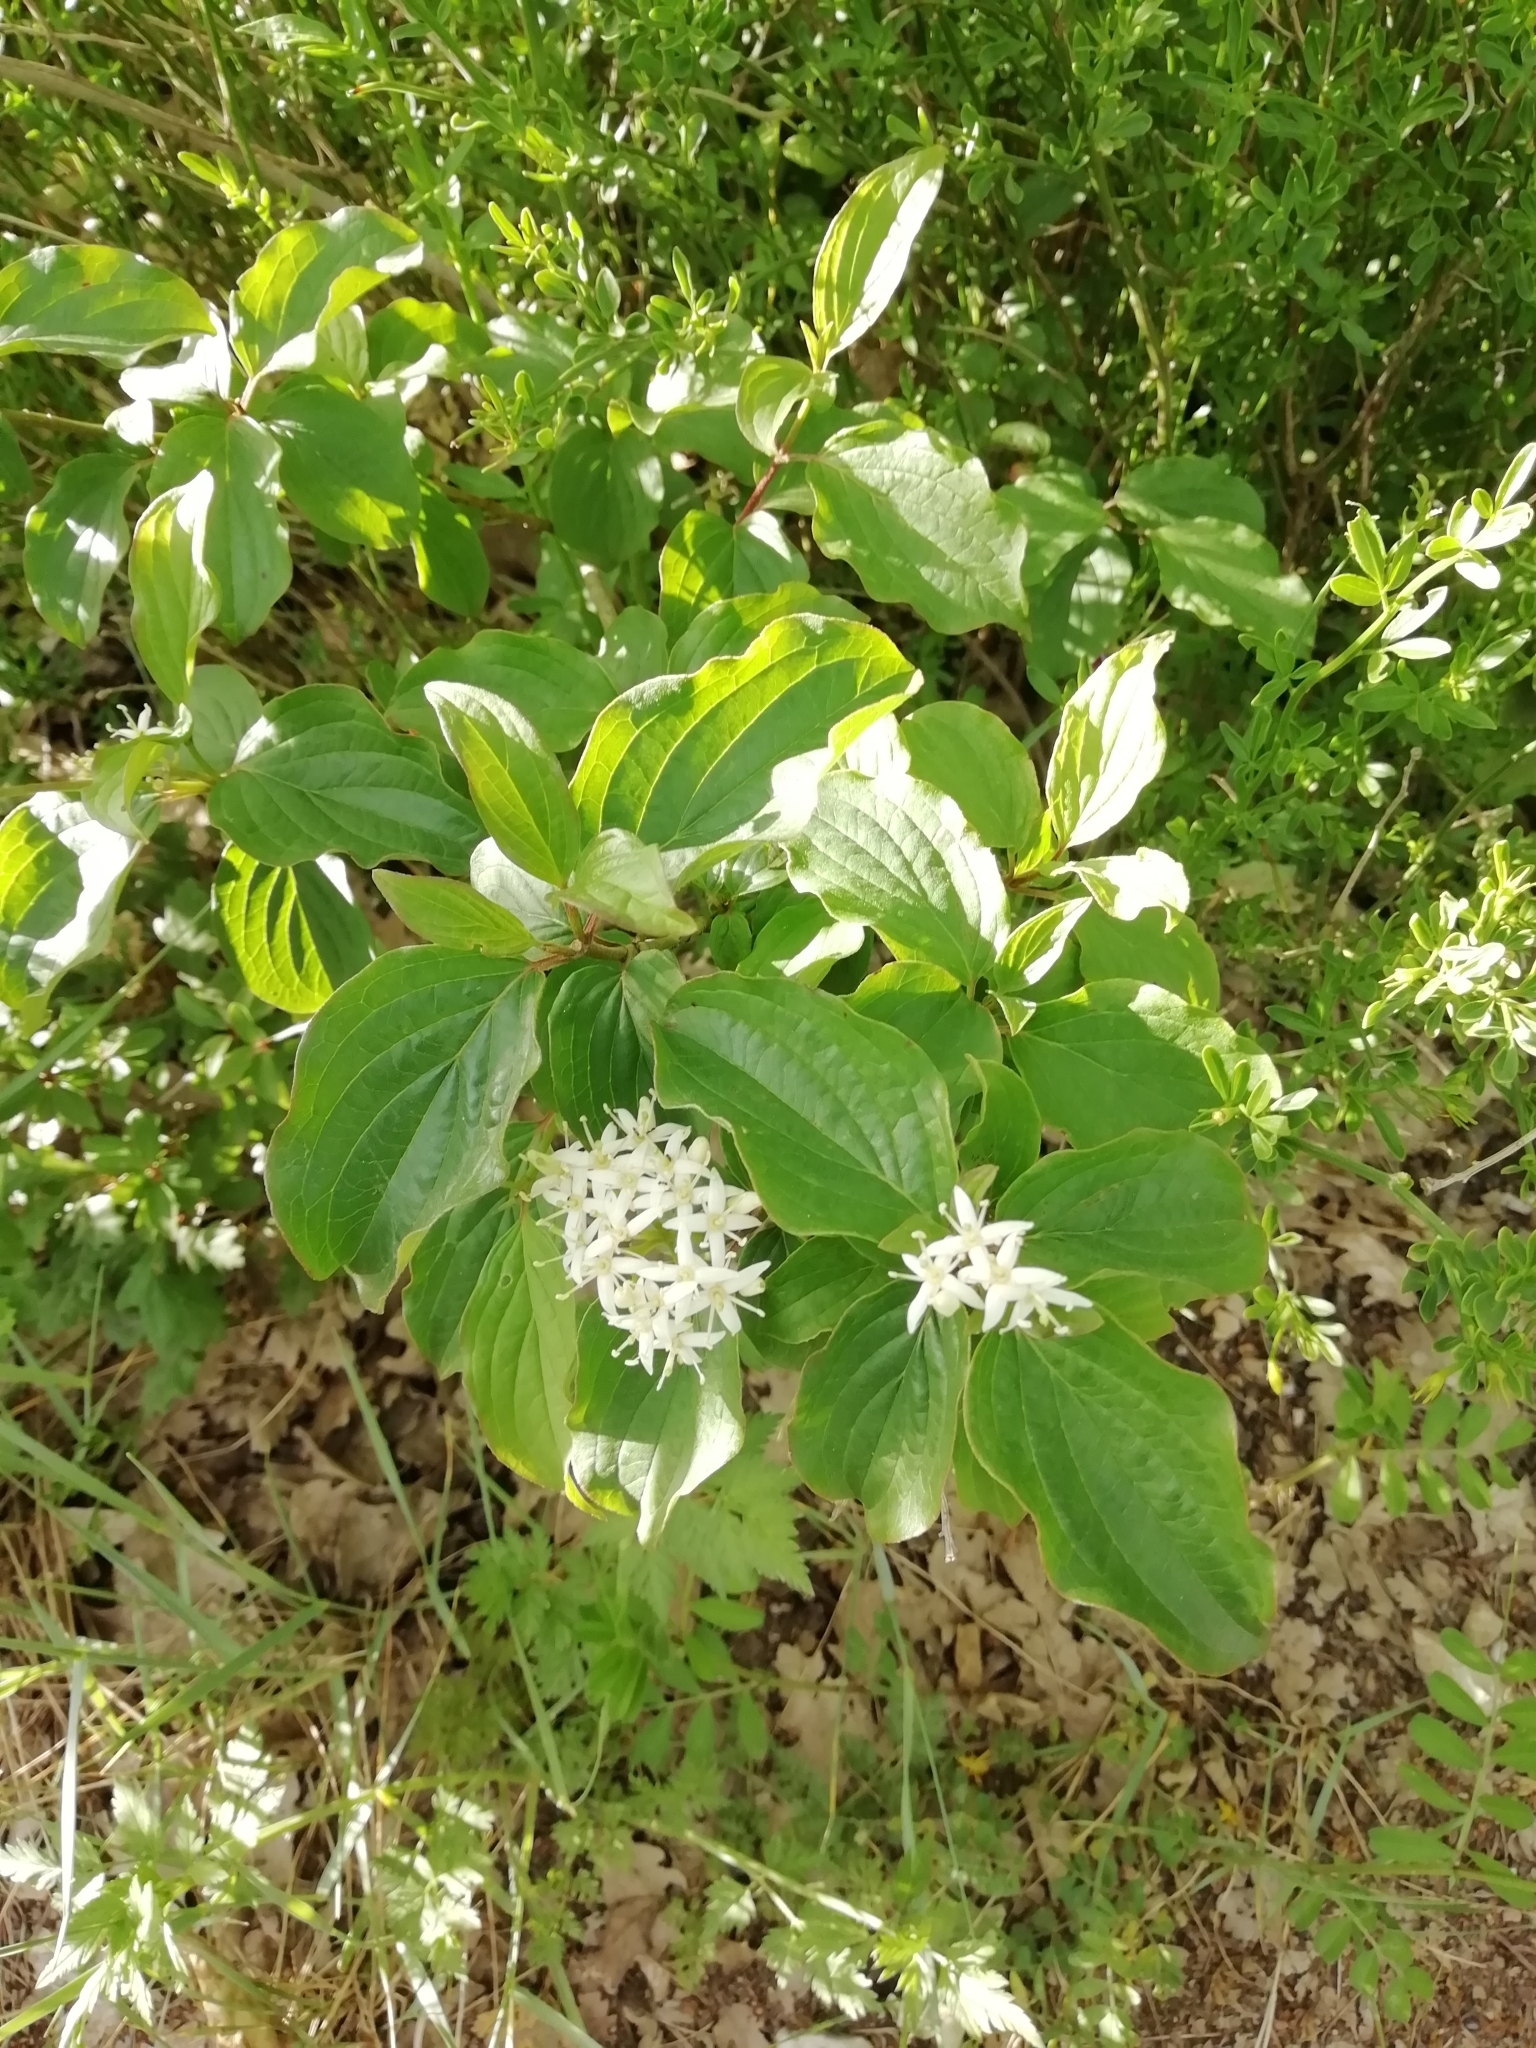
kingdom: Plantae
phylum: Tracheophyta
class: Magnoliopsida
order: Cornales
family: Cornaceae
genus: Cornus
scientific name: Cornus sanguinea
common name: Dogwood
